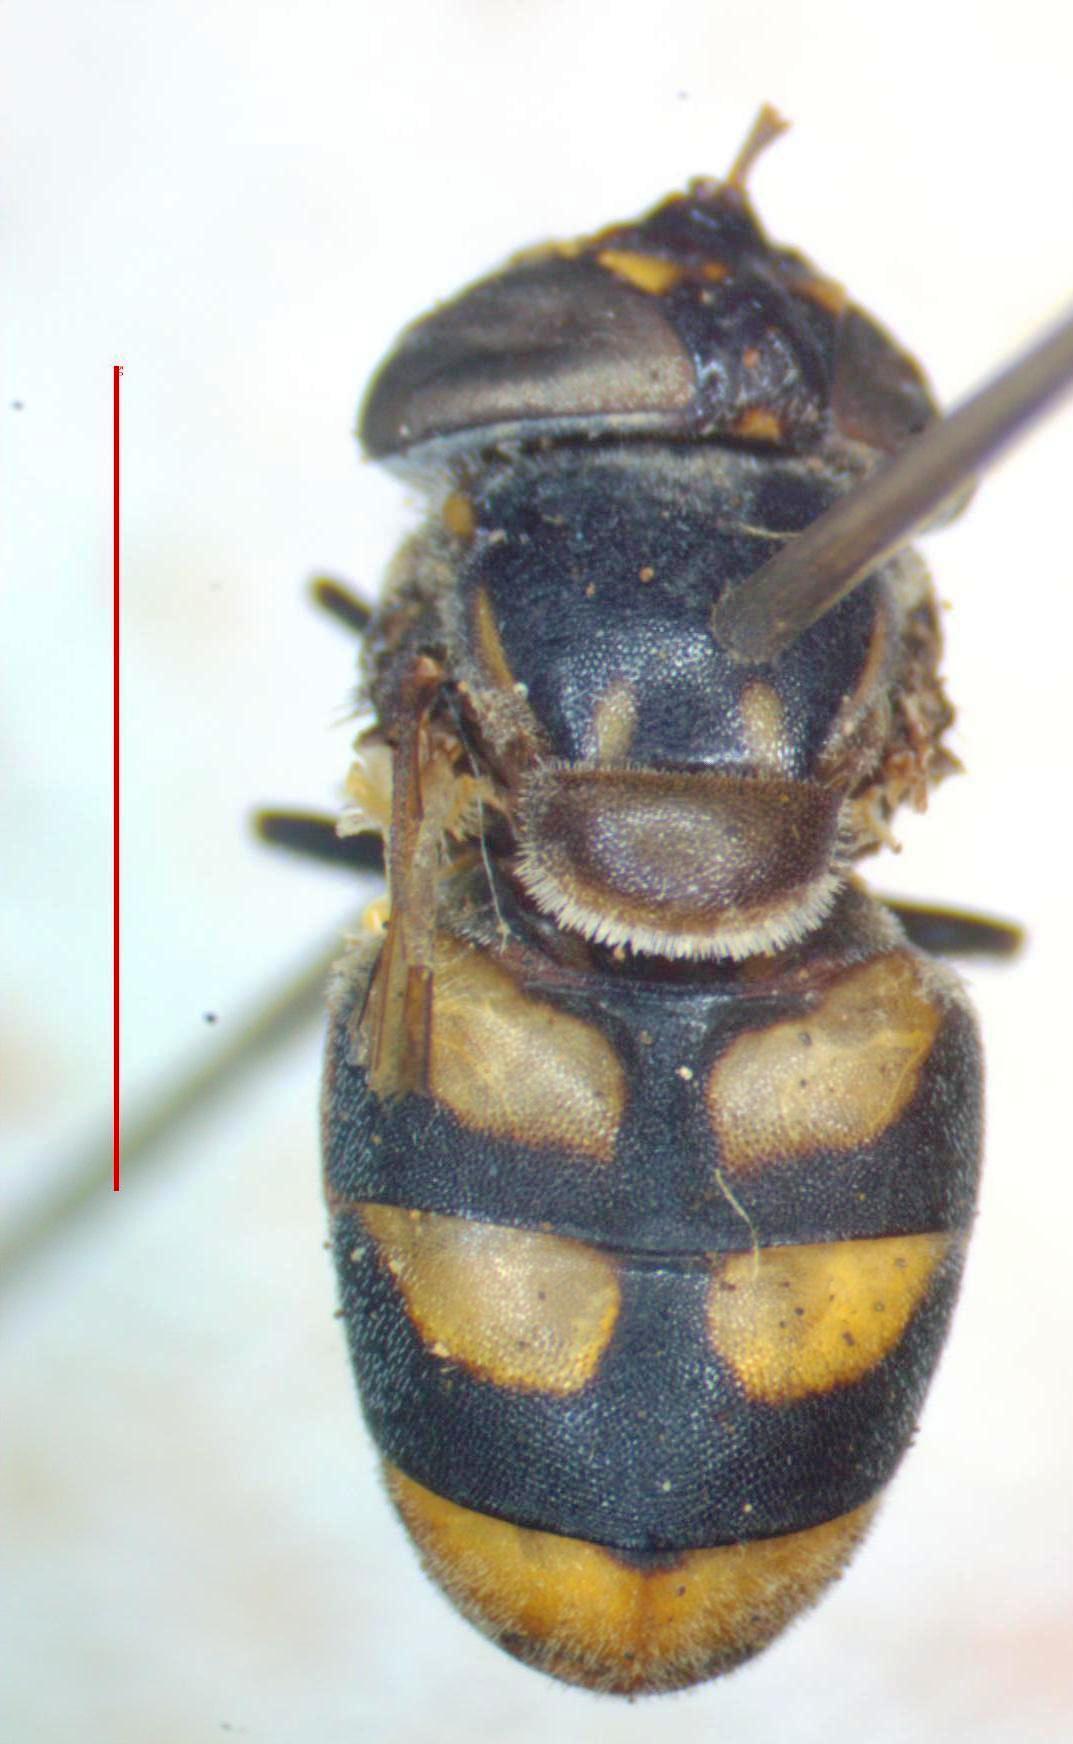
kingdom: Animalia
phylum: Arthropoda
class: Insecta
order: Diptera
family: Syrphidae
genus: Copestylum
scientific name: Copestylum limbipenne
